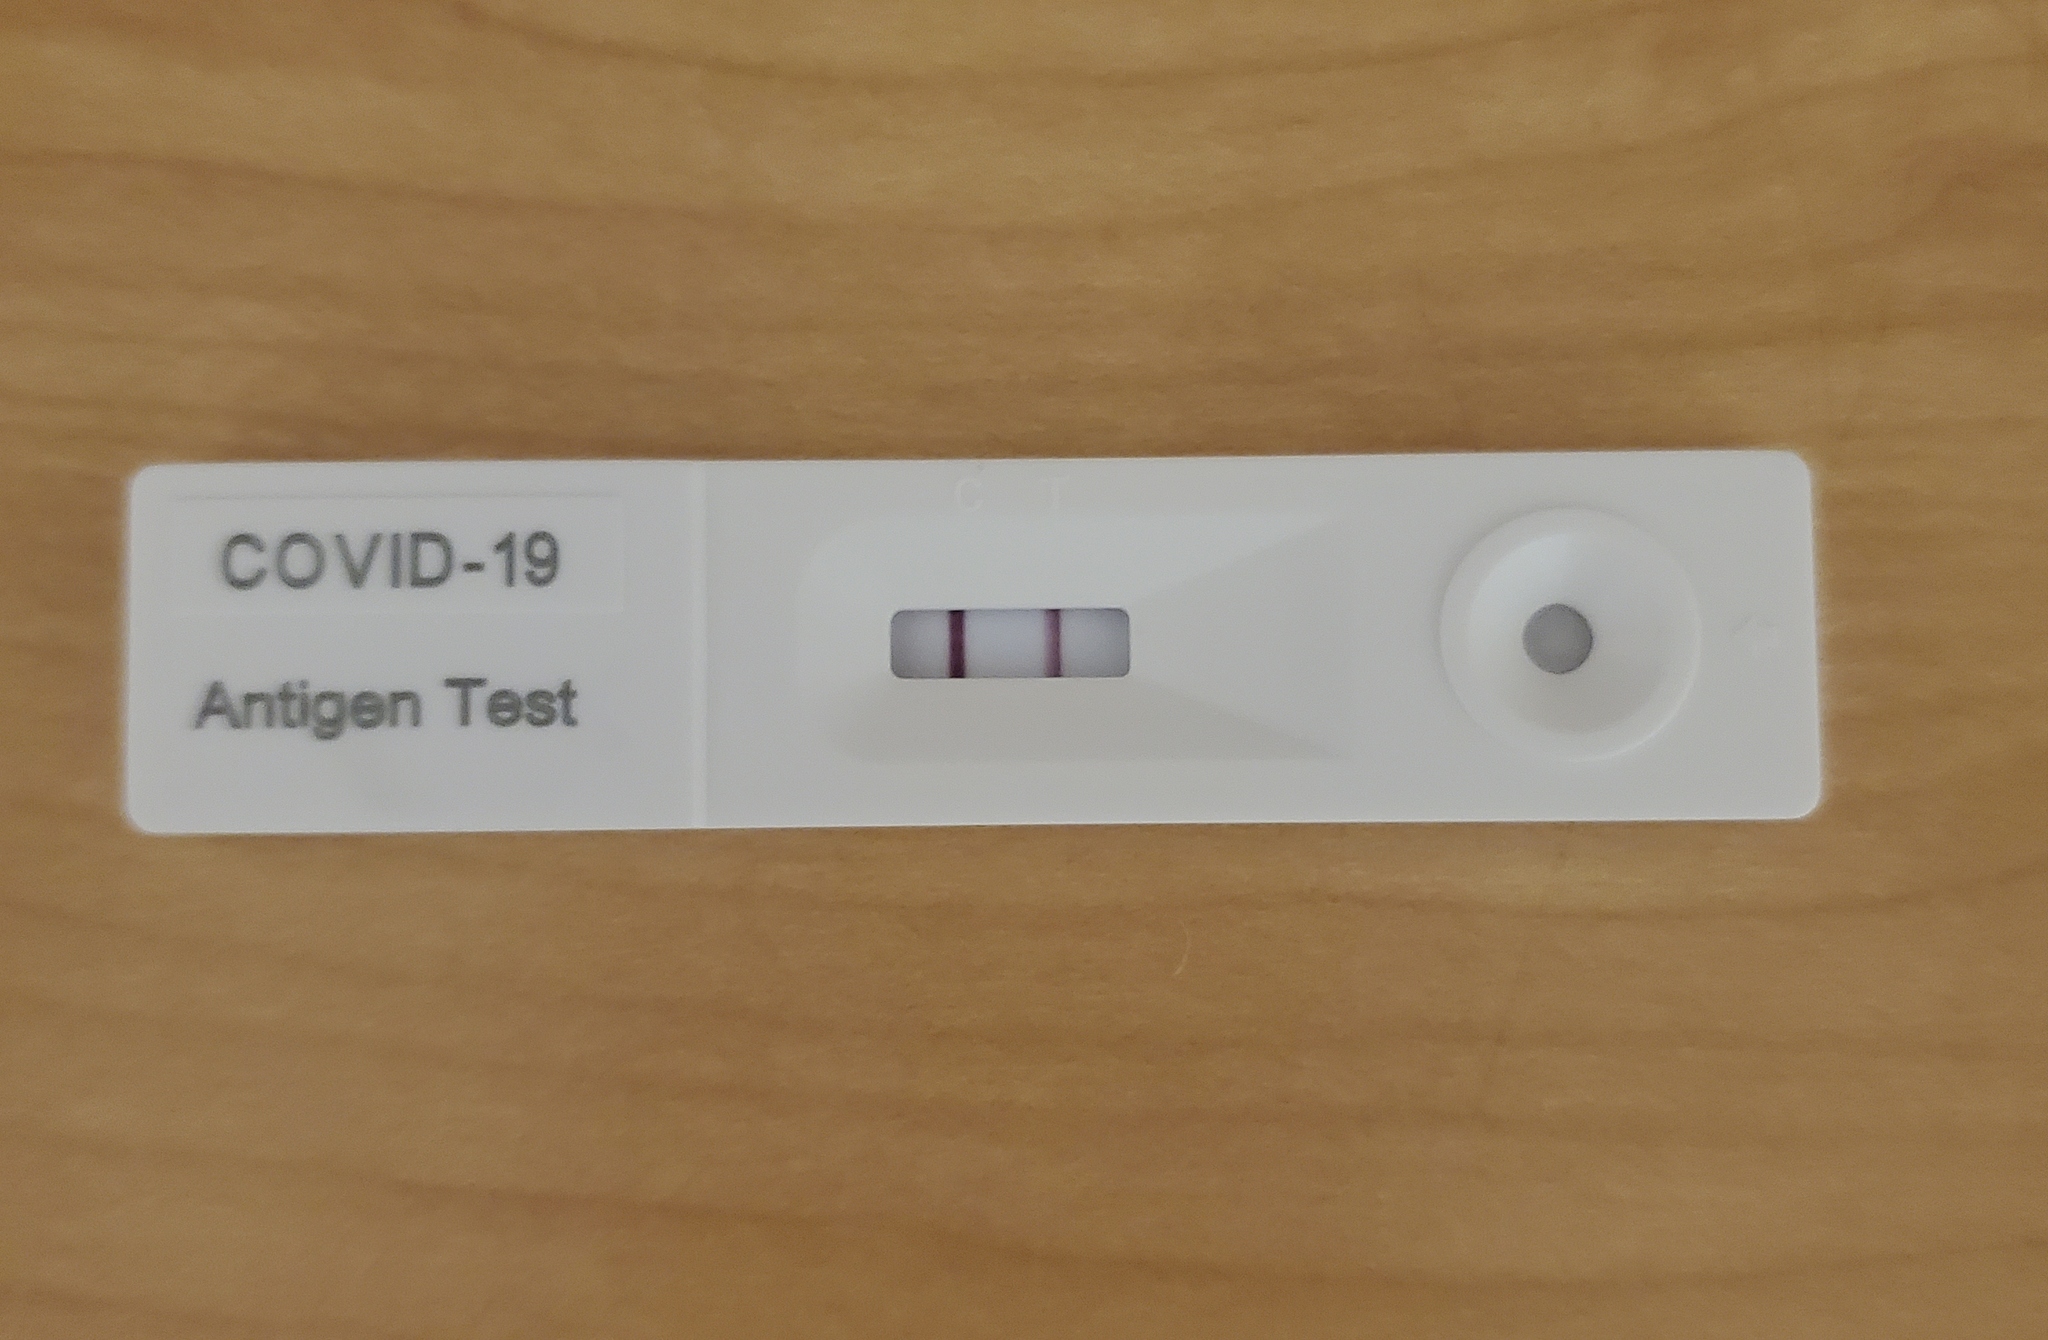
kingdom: Viruses
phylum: Pisuviricota
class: Pisoniviricetes
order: Nidovirales
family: Coronaviridae
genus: Betacoronavirus
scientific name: Betacoronavirus
